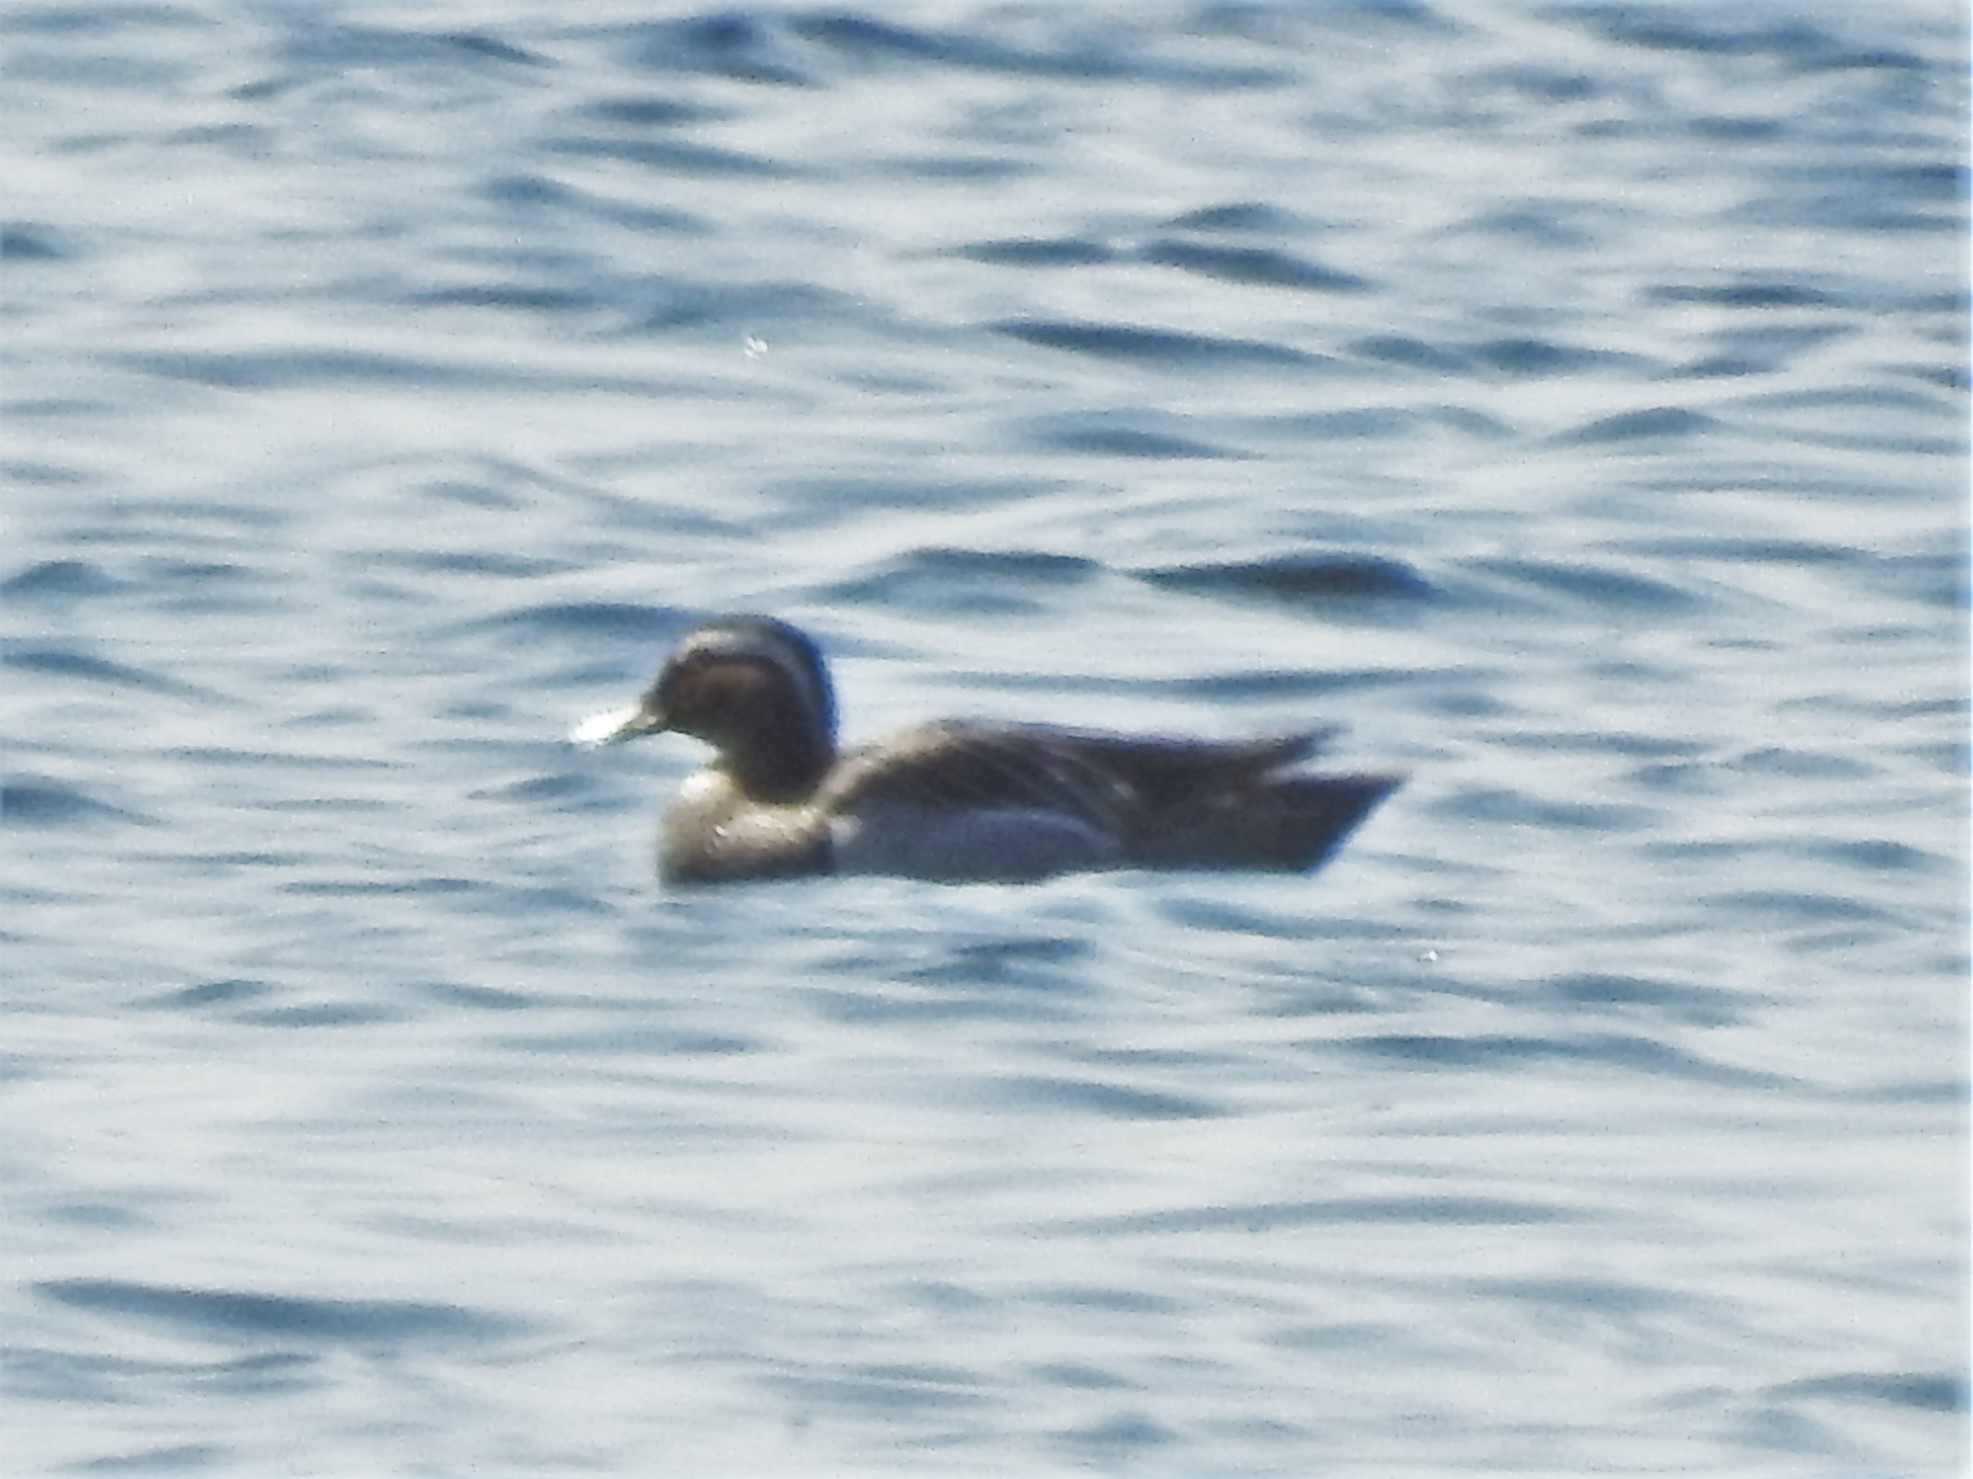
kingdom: Animalia
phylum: Chordata
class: Aves
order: Anseriformes
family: Anatidae
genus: Spatula
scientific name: Spatula querquedula
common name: Garganey
